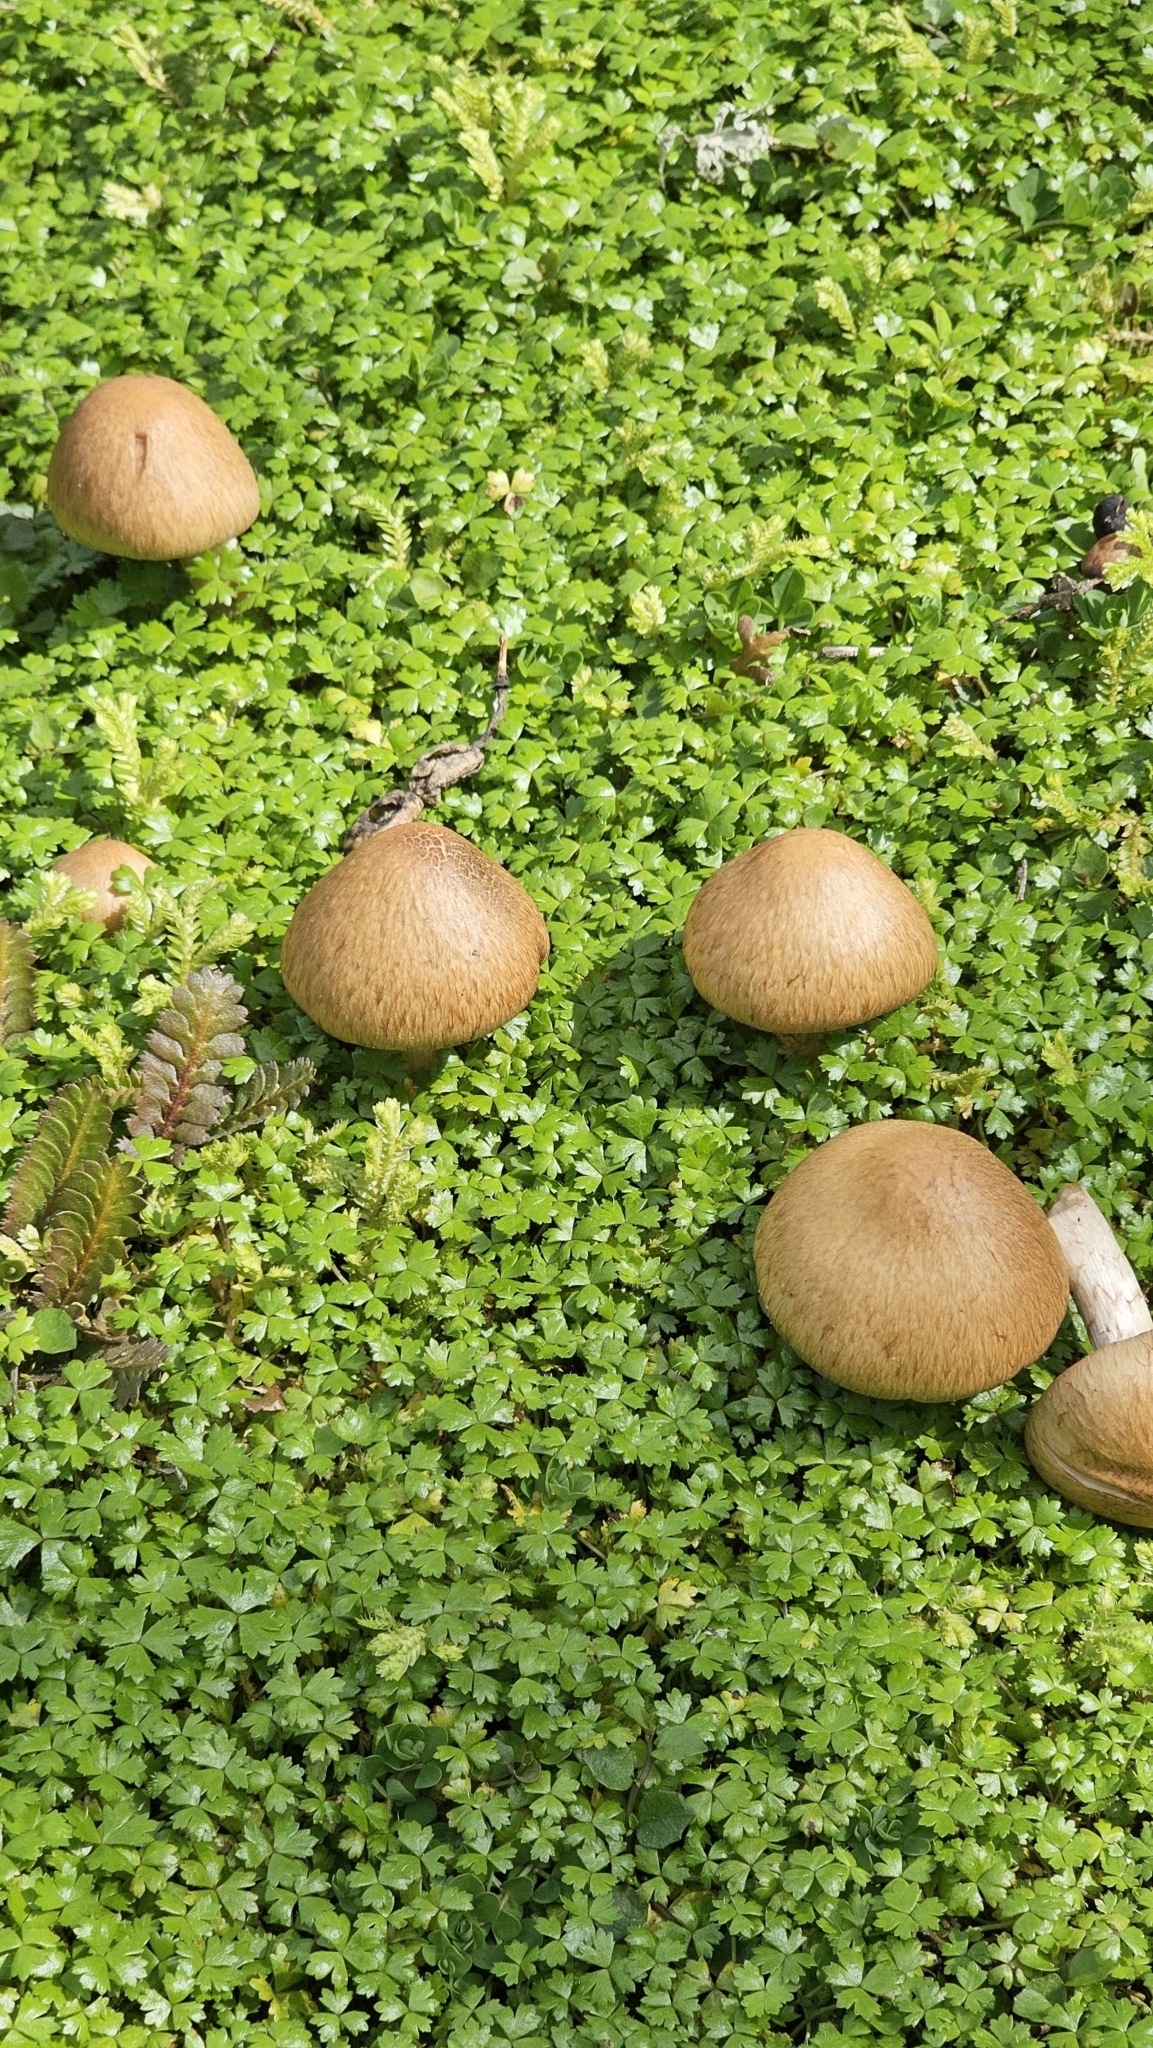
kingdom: Fungi
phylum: Basidiomycota
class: Agaricomycetes
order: Agaricales
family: Psathyrellaceae
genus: Lacrymaria
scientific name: Lacrymaria lacrymabunda
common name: Weeping widow
